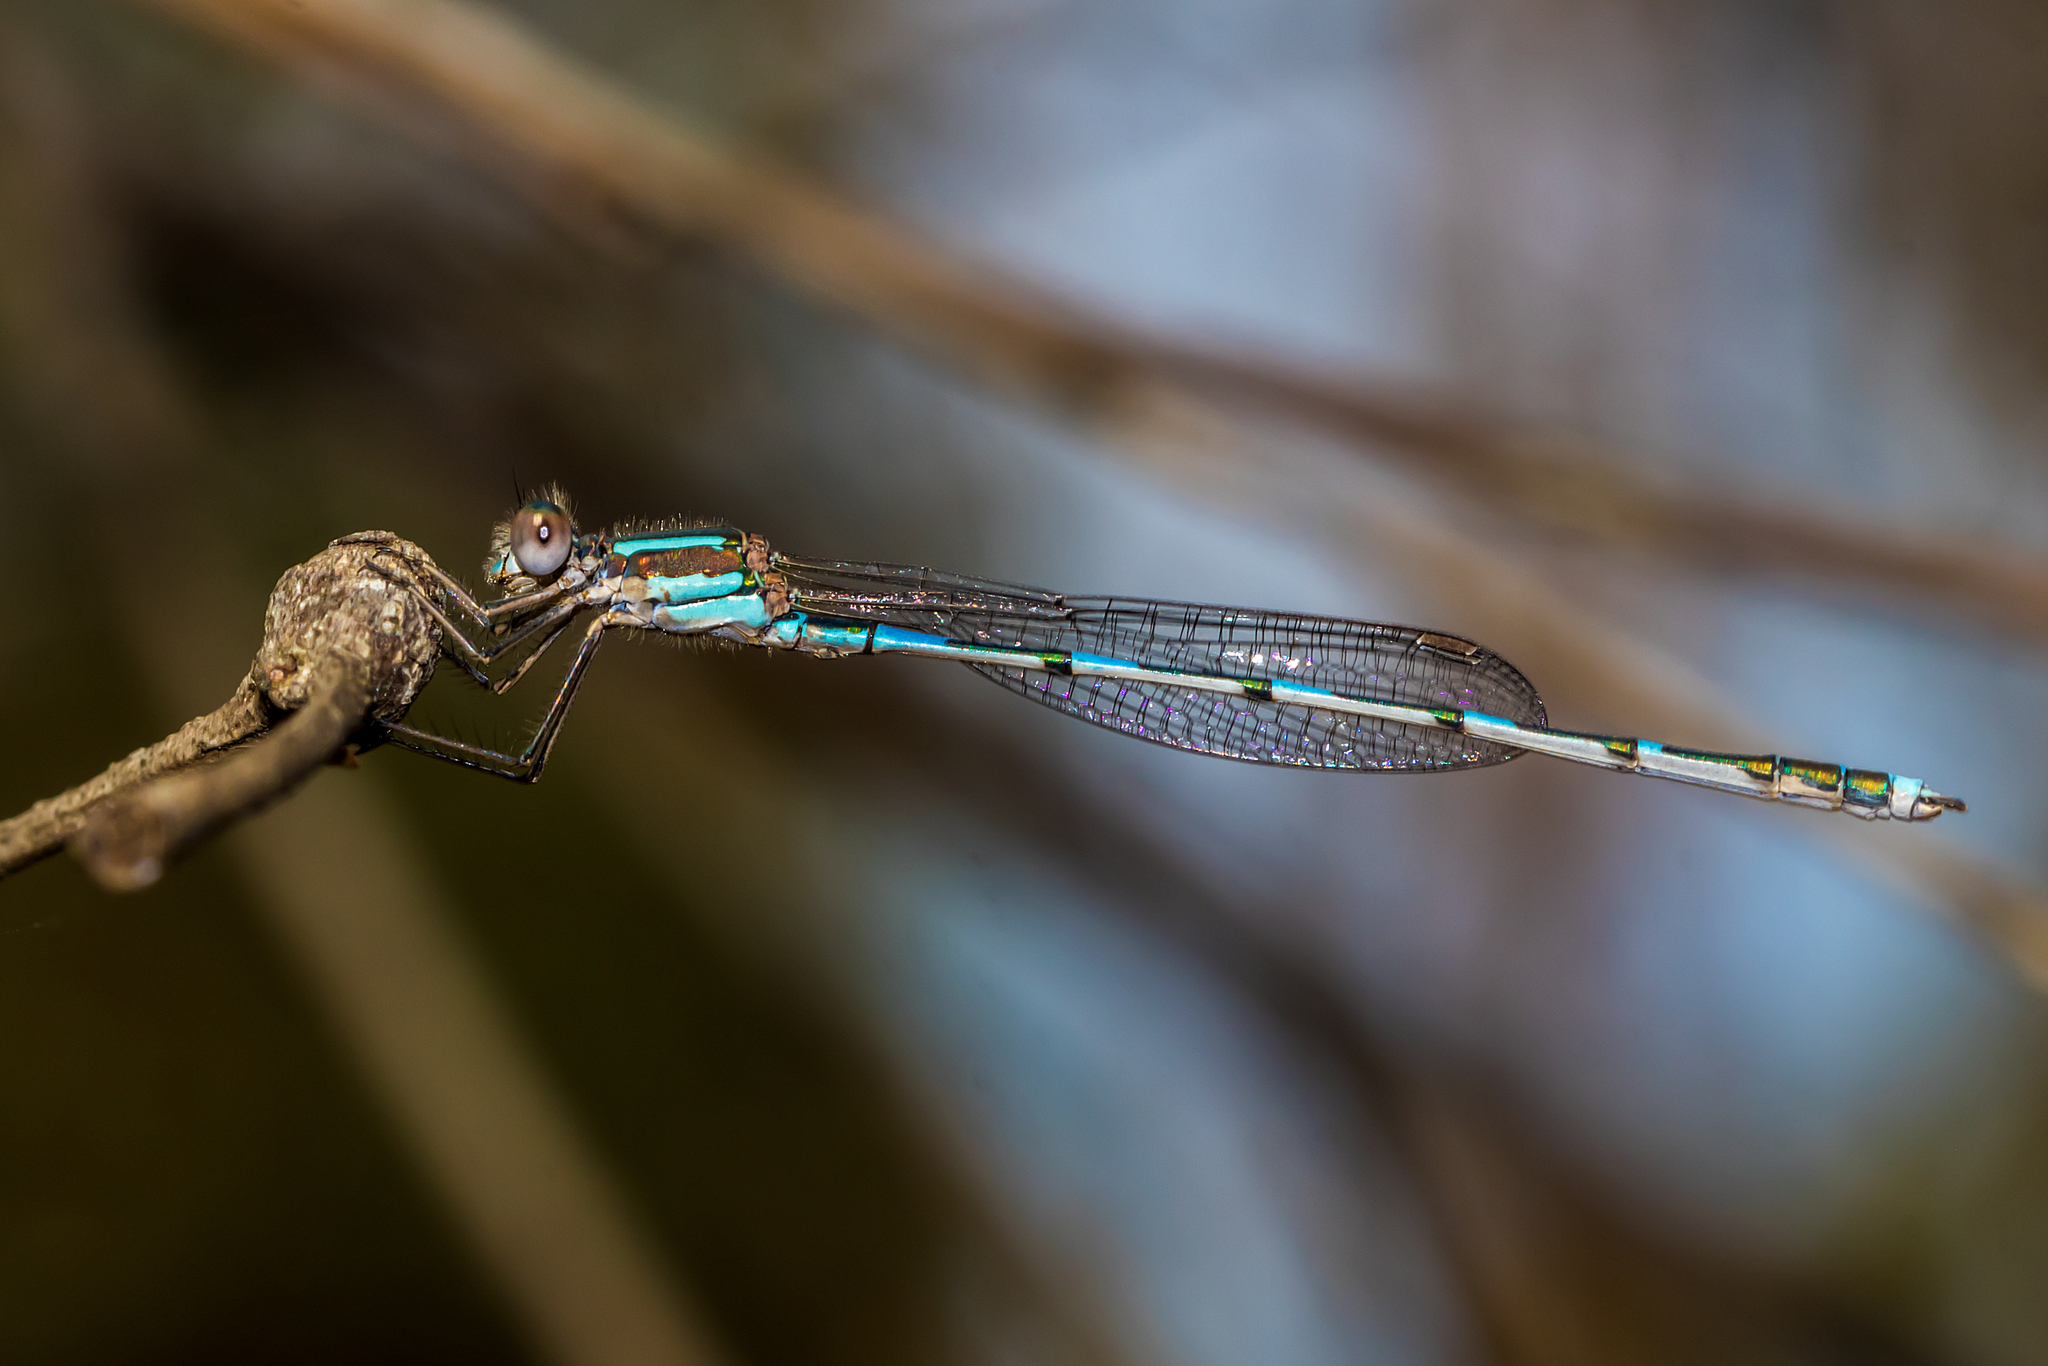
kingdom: Animalia
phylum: Arthropoda
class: Insecta
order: Odonata
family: Lestidae
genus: Austrolestes
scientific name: Austrolestes leda
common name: Wandering ringtail
